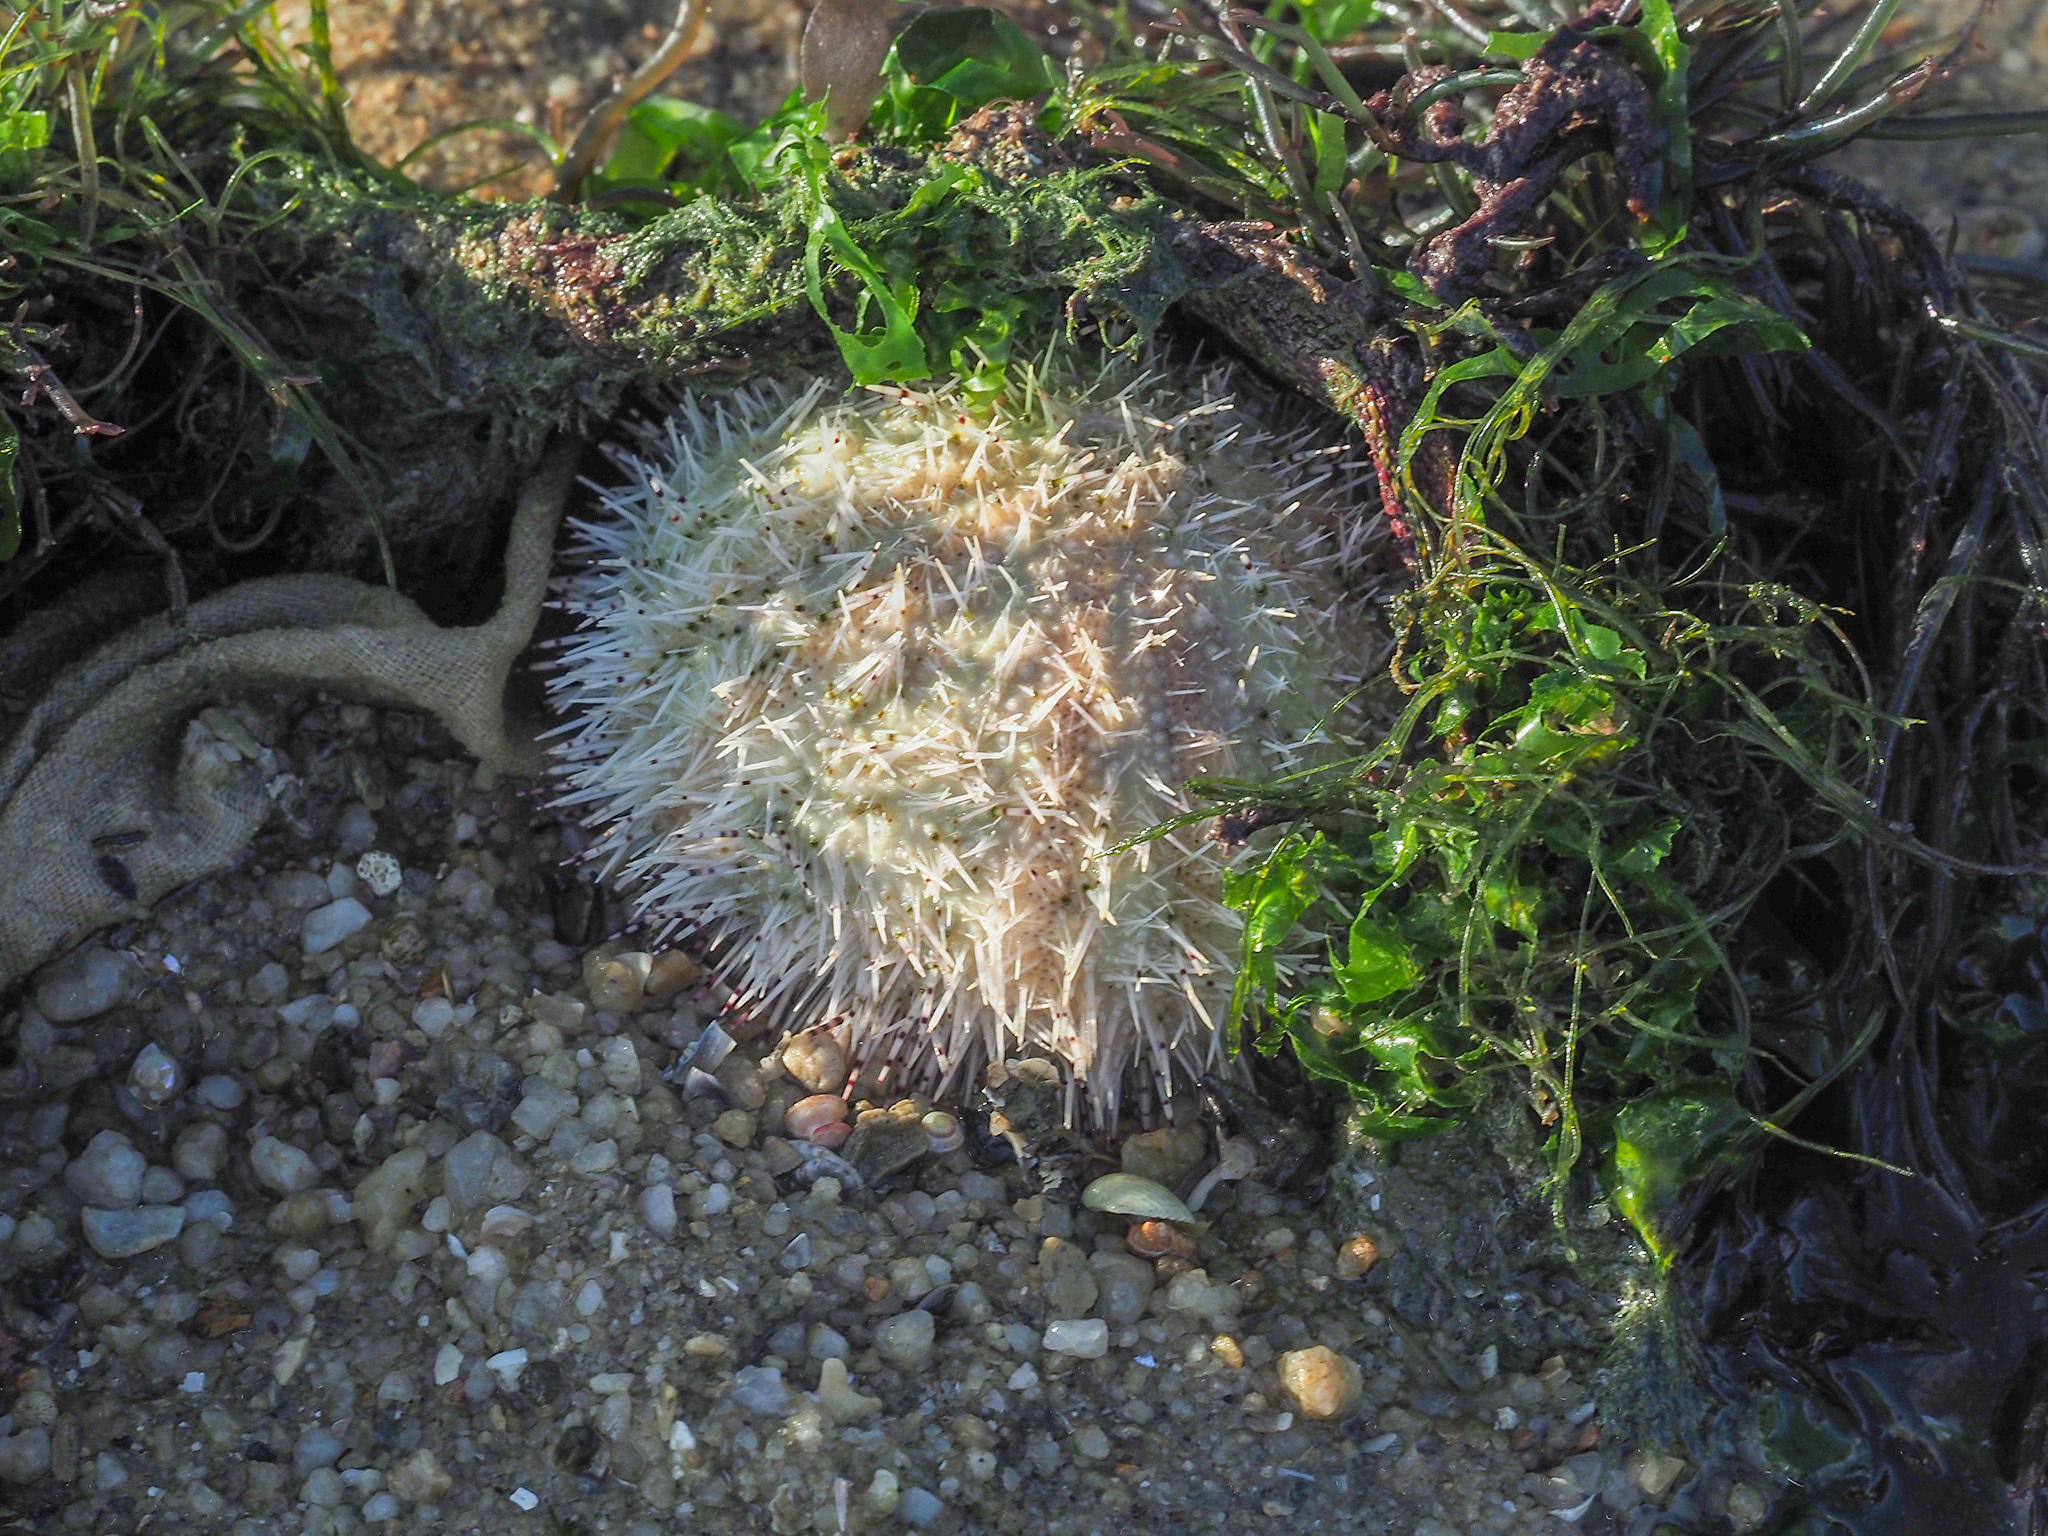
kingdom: Animalia
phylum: Echinodermata
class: Echinoidea
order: Camarodonta
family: Temnopleuridae
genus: Salmacis
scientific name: Salmacis sphaeroides
